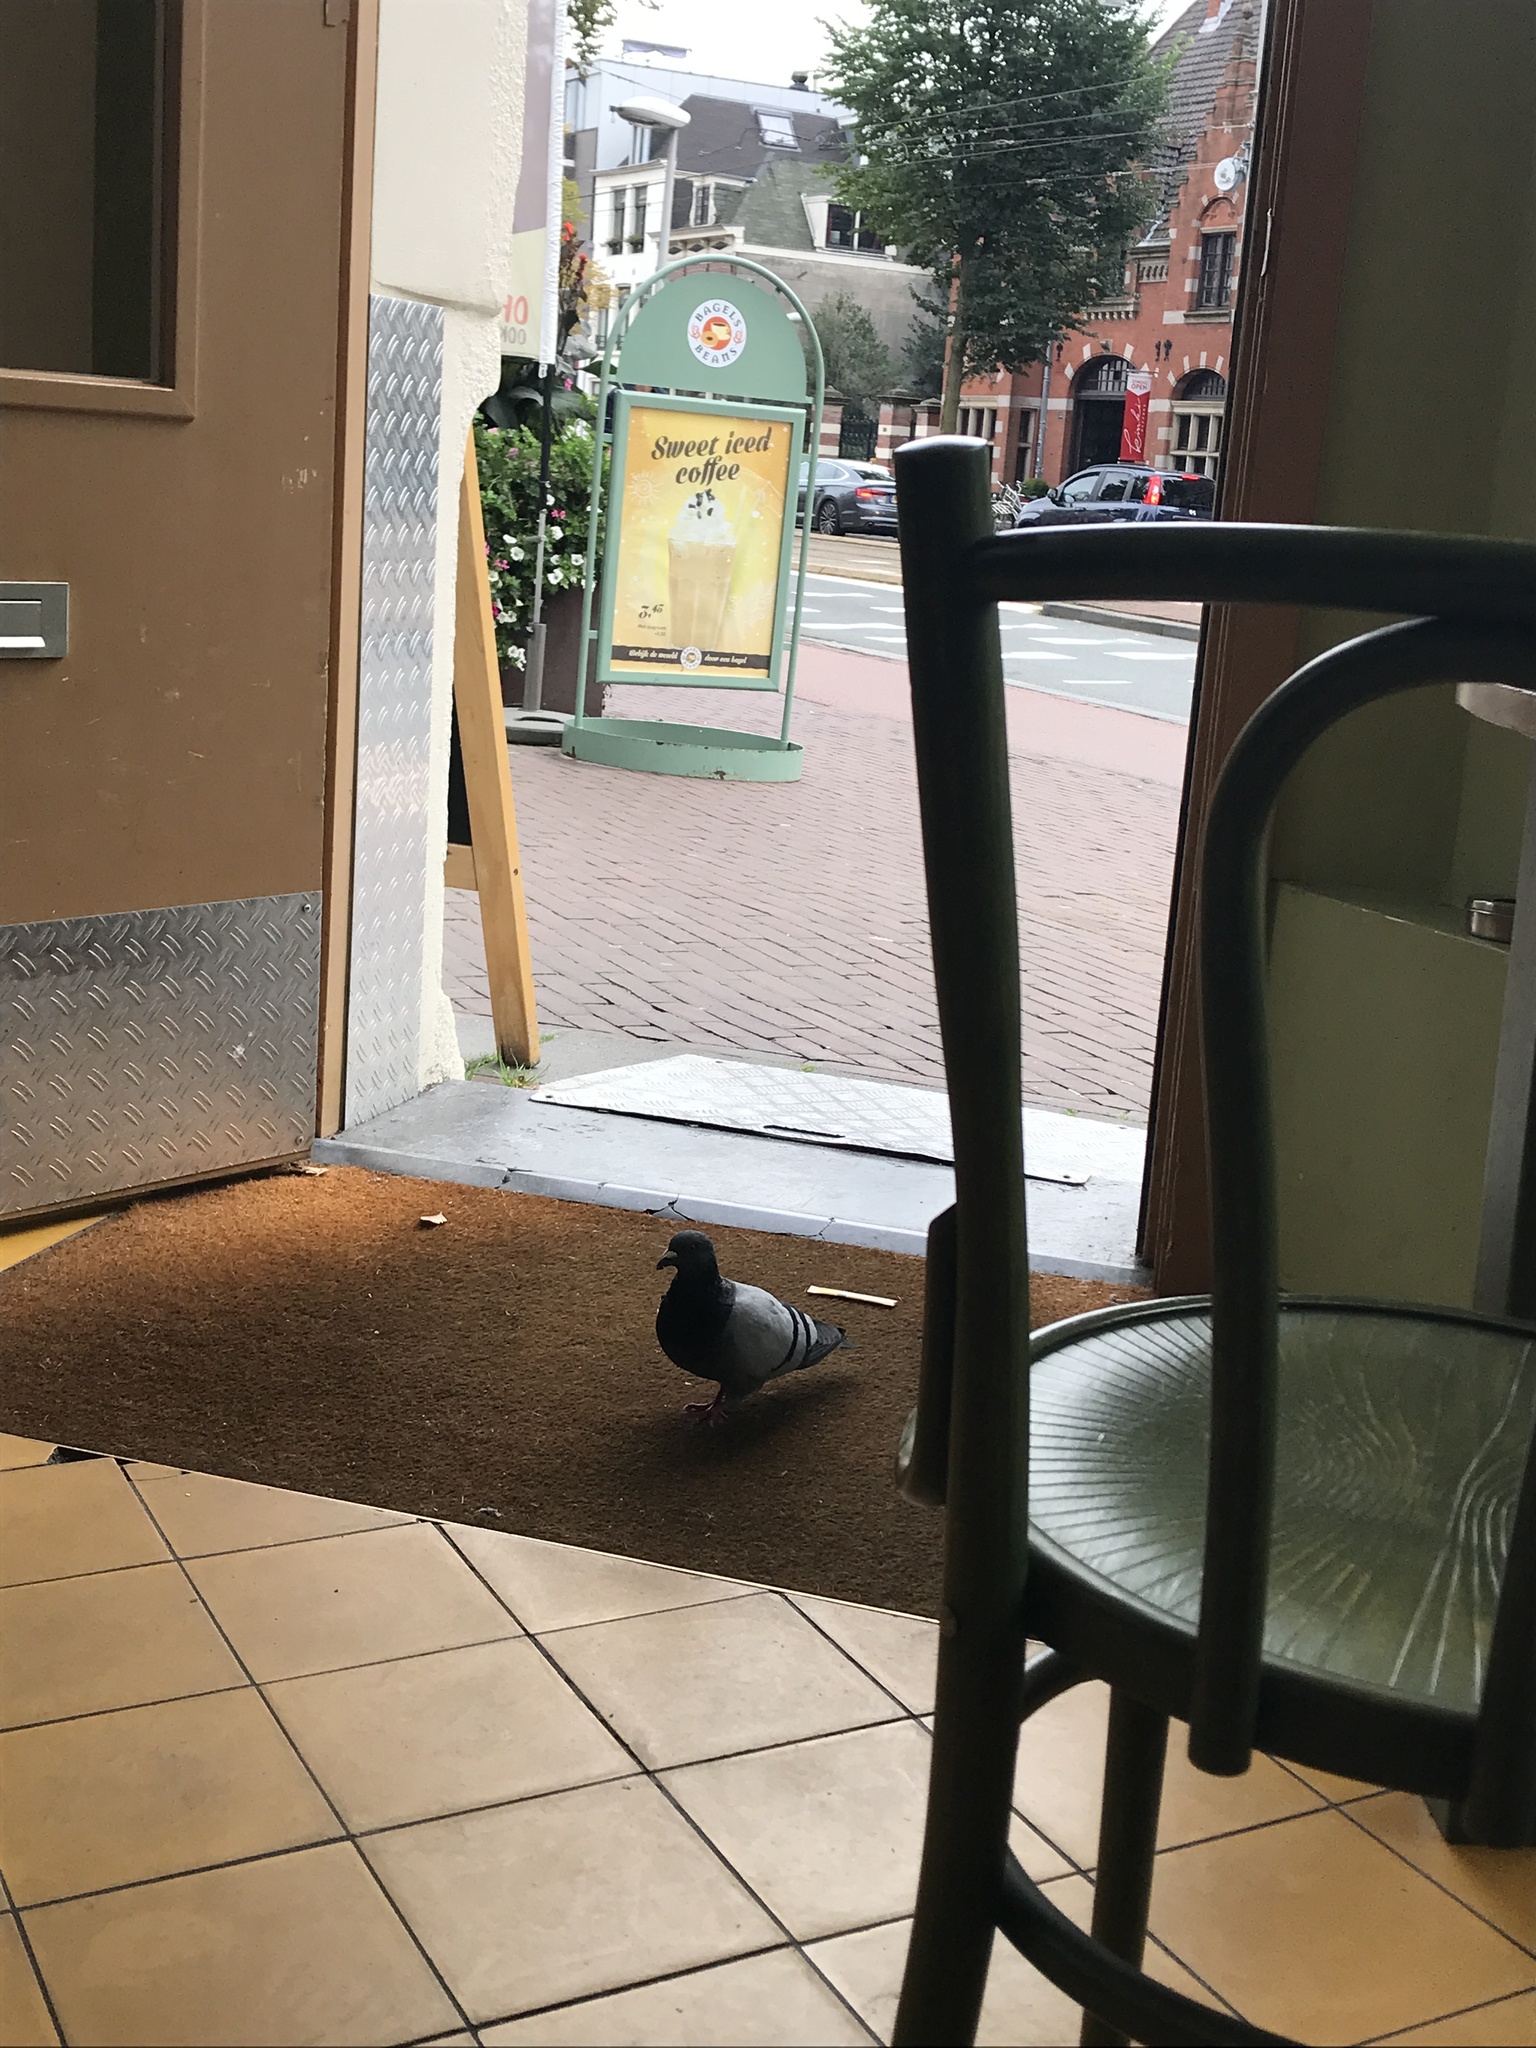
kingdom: Animalia
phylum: Chordata
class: Aves
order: Columbiformes
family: Columbidae
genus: Columba
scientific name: Columba livia
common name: Rock pigeon
